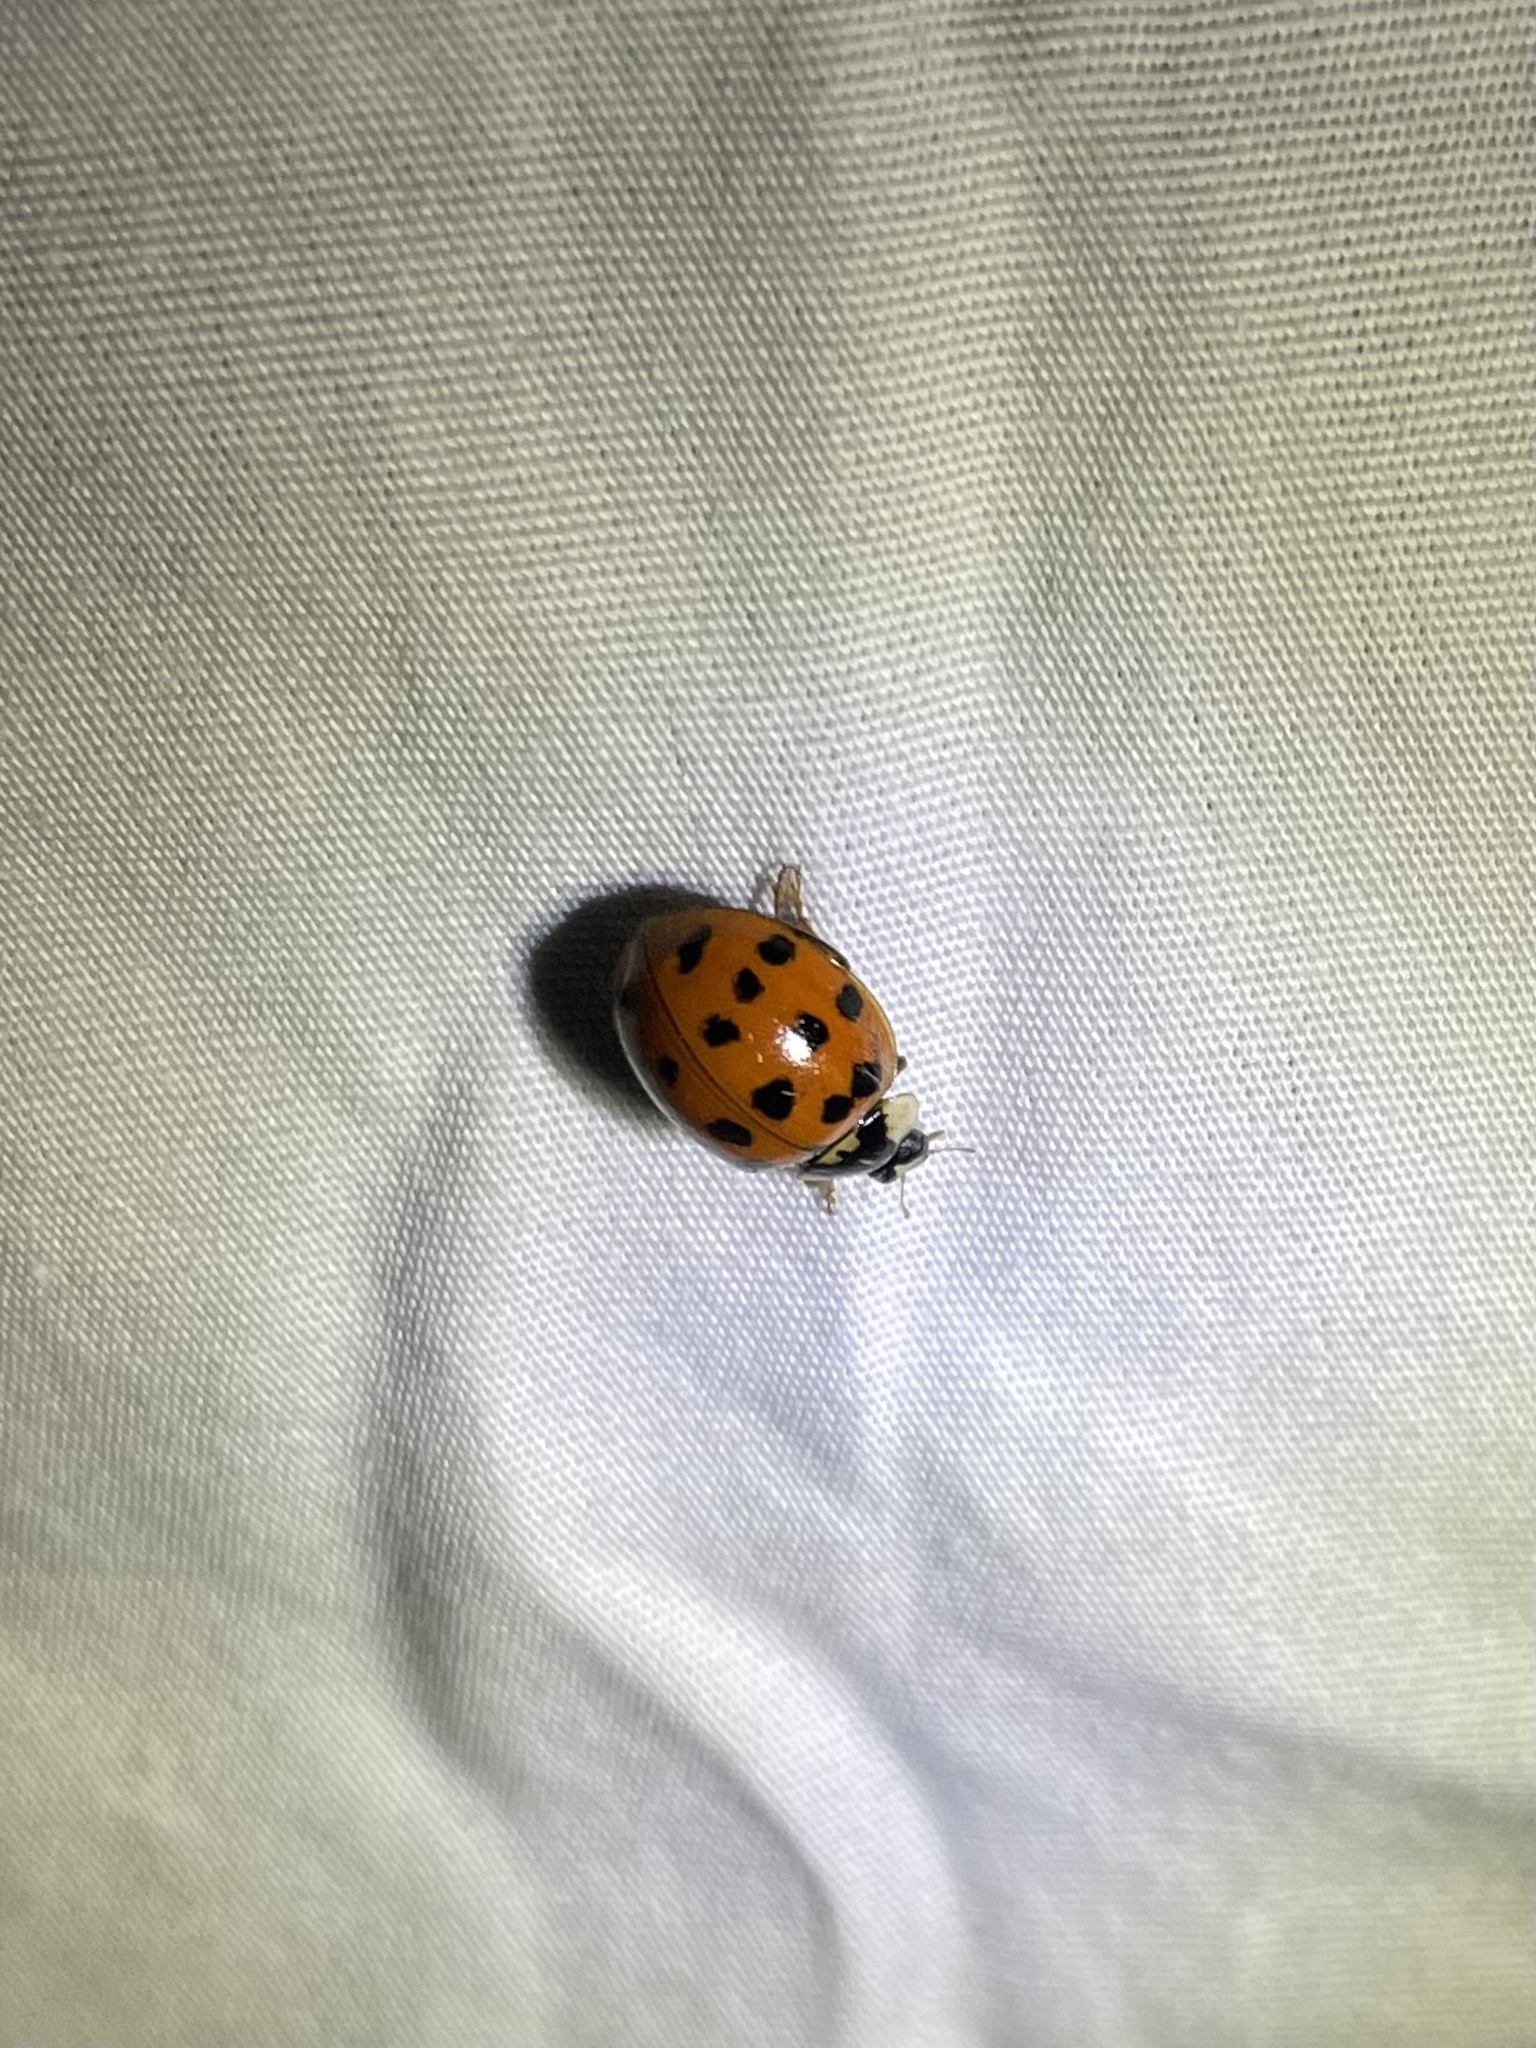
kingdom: Animalia
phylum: Arthropoda
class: Insecta
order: Coleoptera
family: Coccinellidae
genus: Harmonia
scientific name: Harmonia axyridis
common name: Harlequin ladybird
